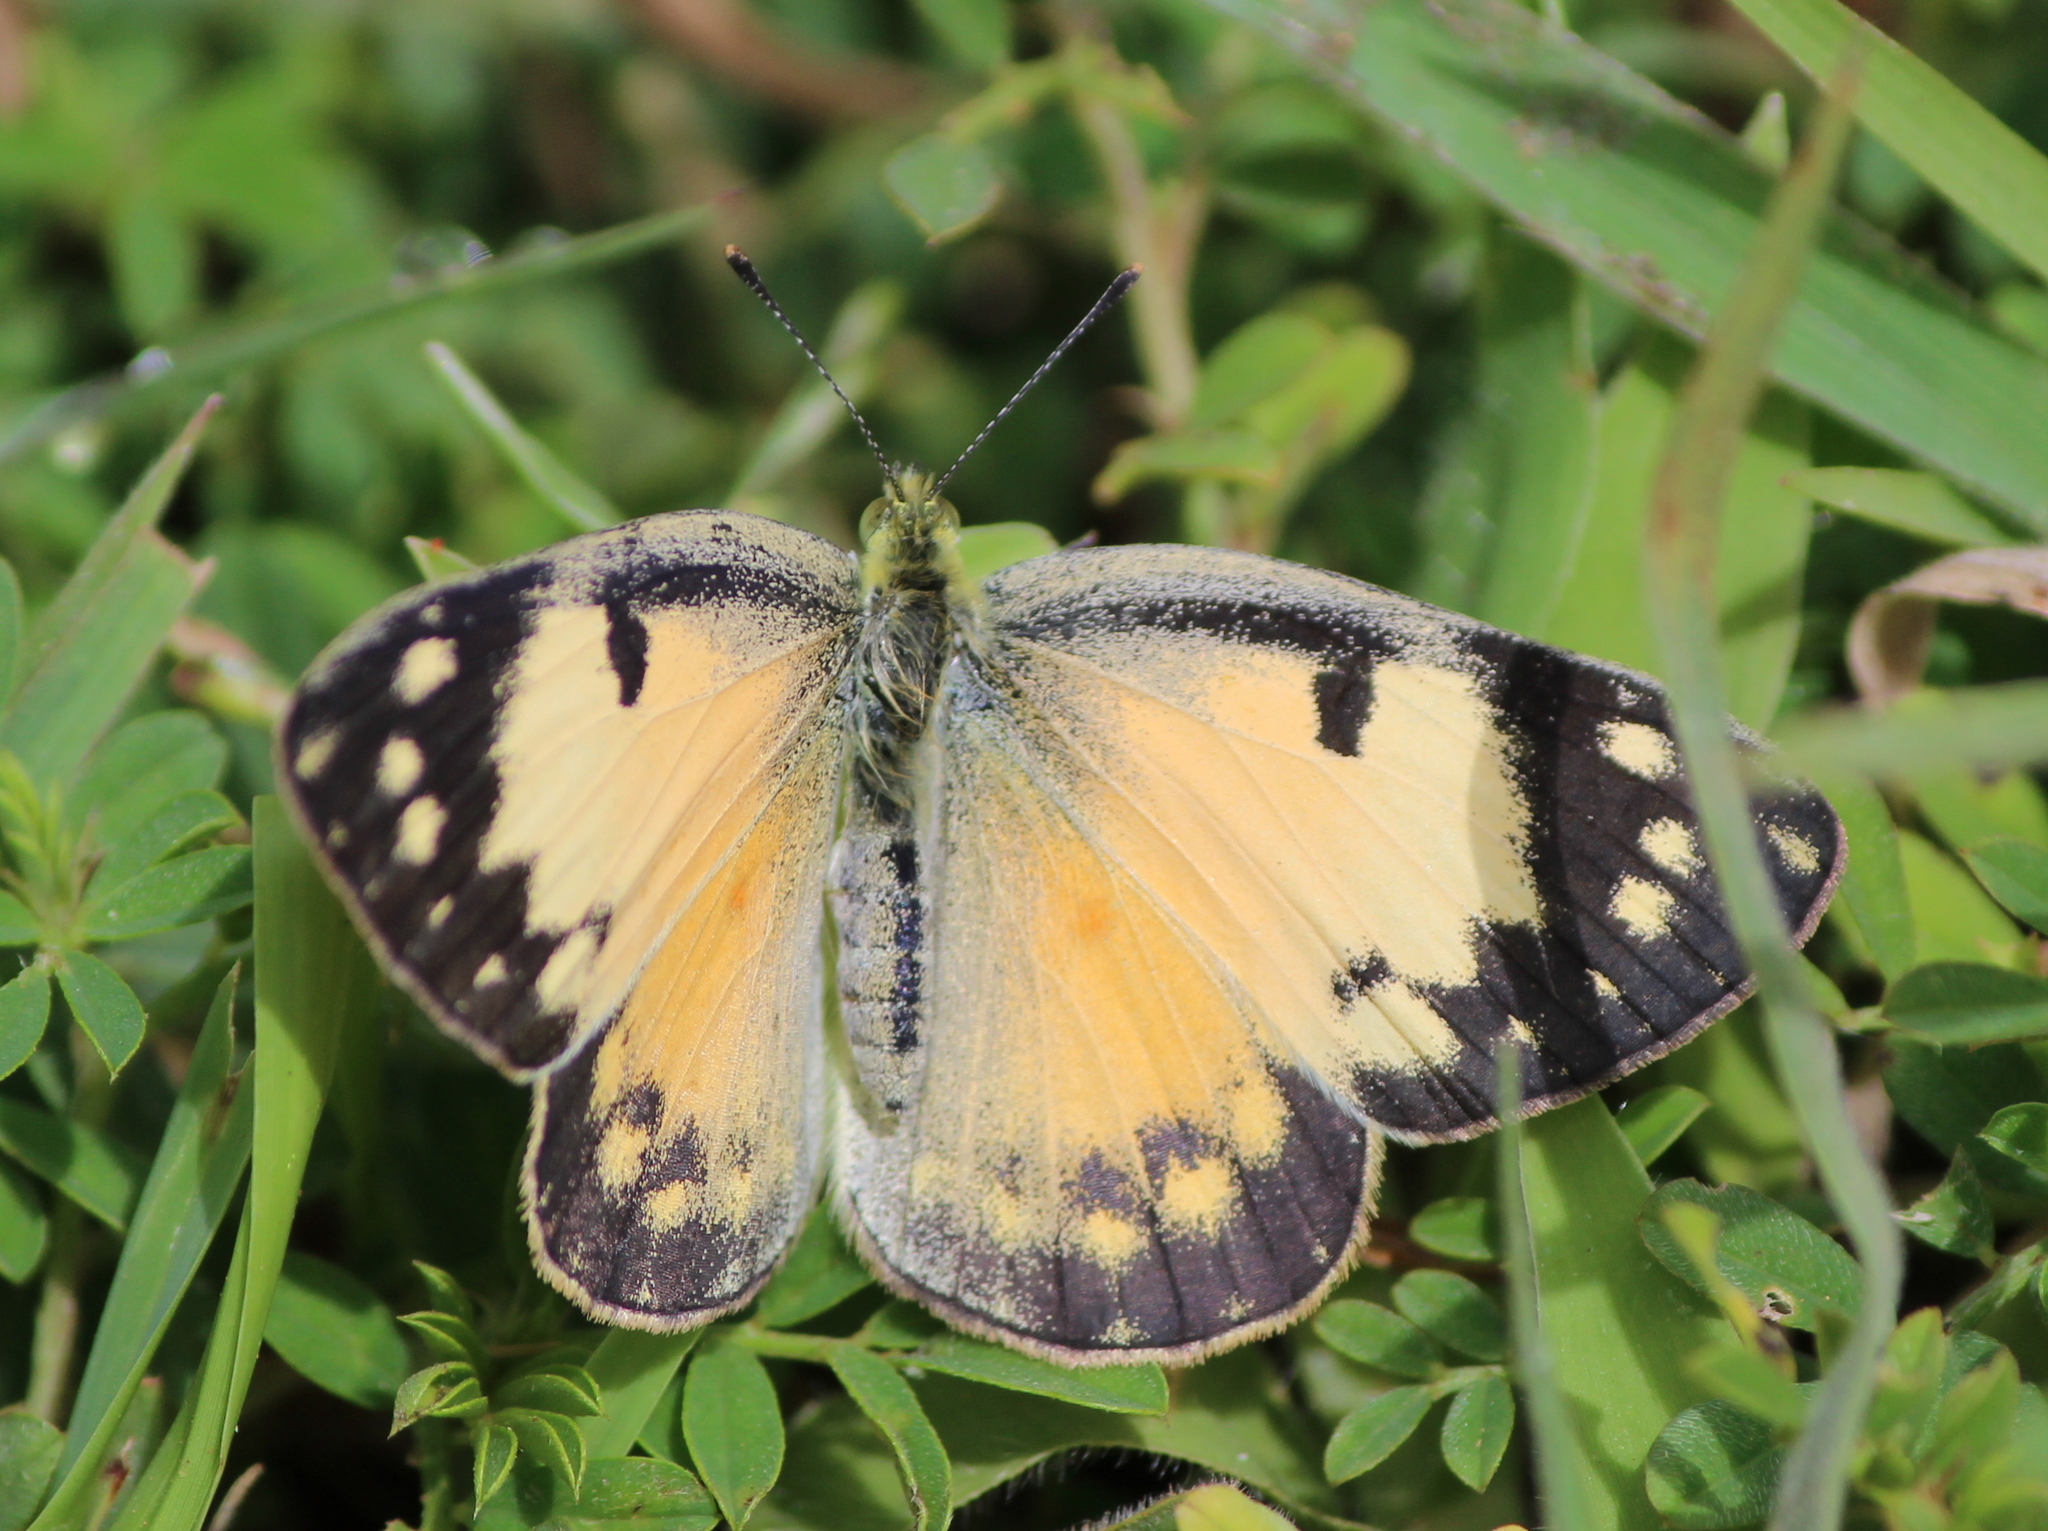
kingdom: Animalia
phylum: Arthropoda
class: Insecta
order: Lepidoptera
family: Pieridae
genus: Colotis
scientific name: Colotis amata
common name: Small salmon arab
